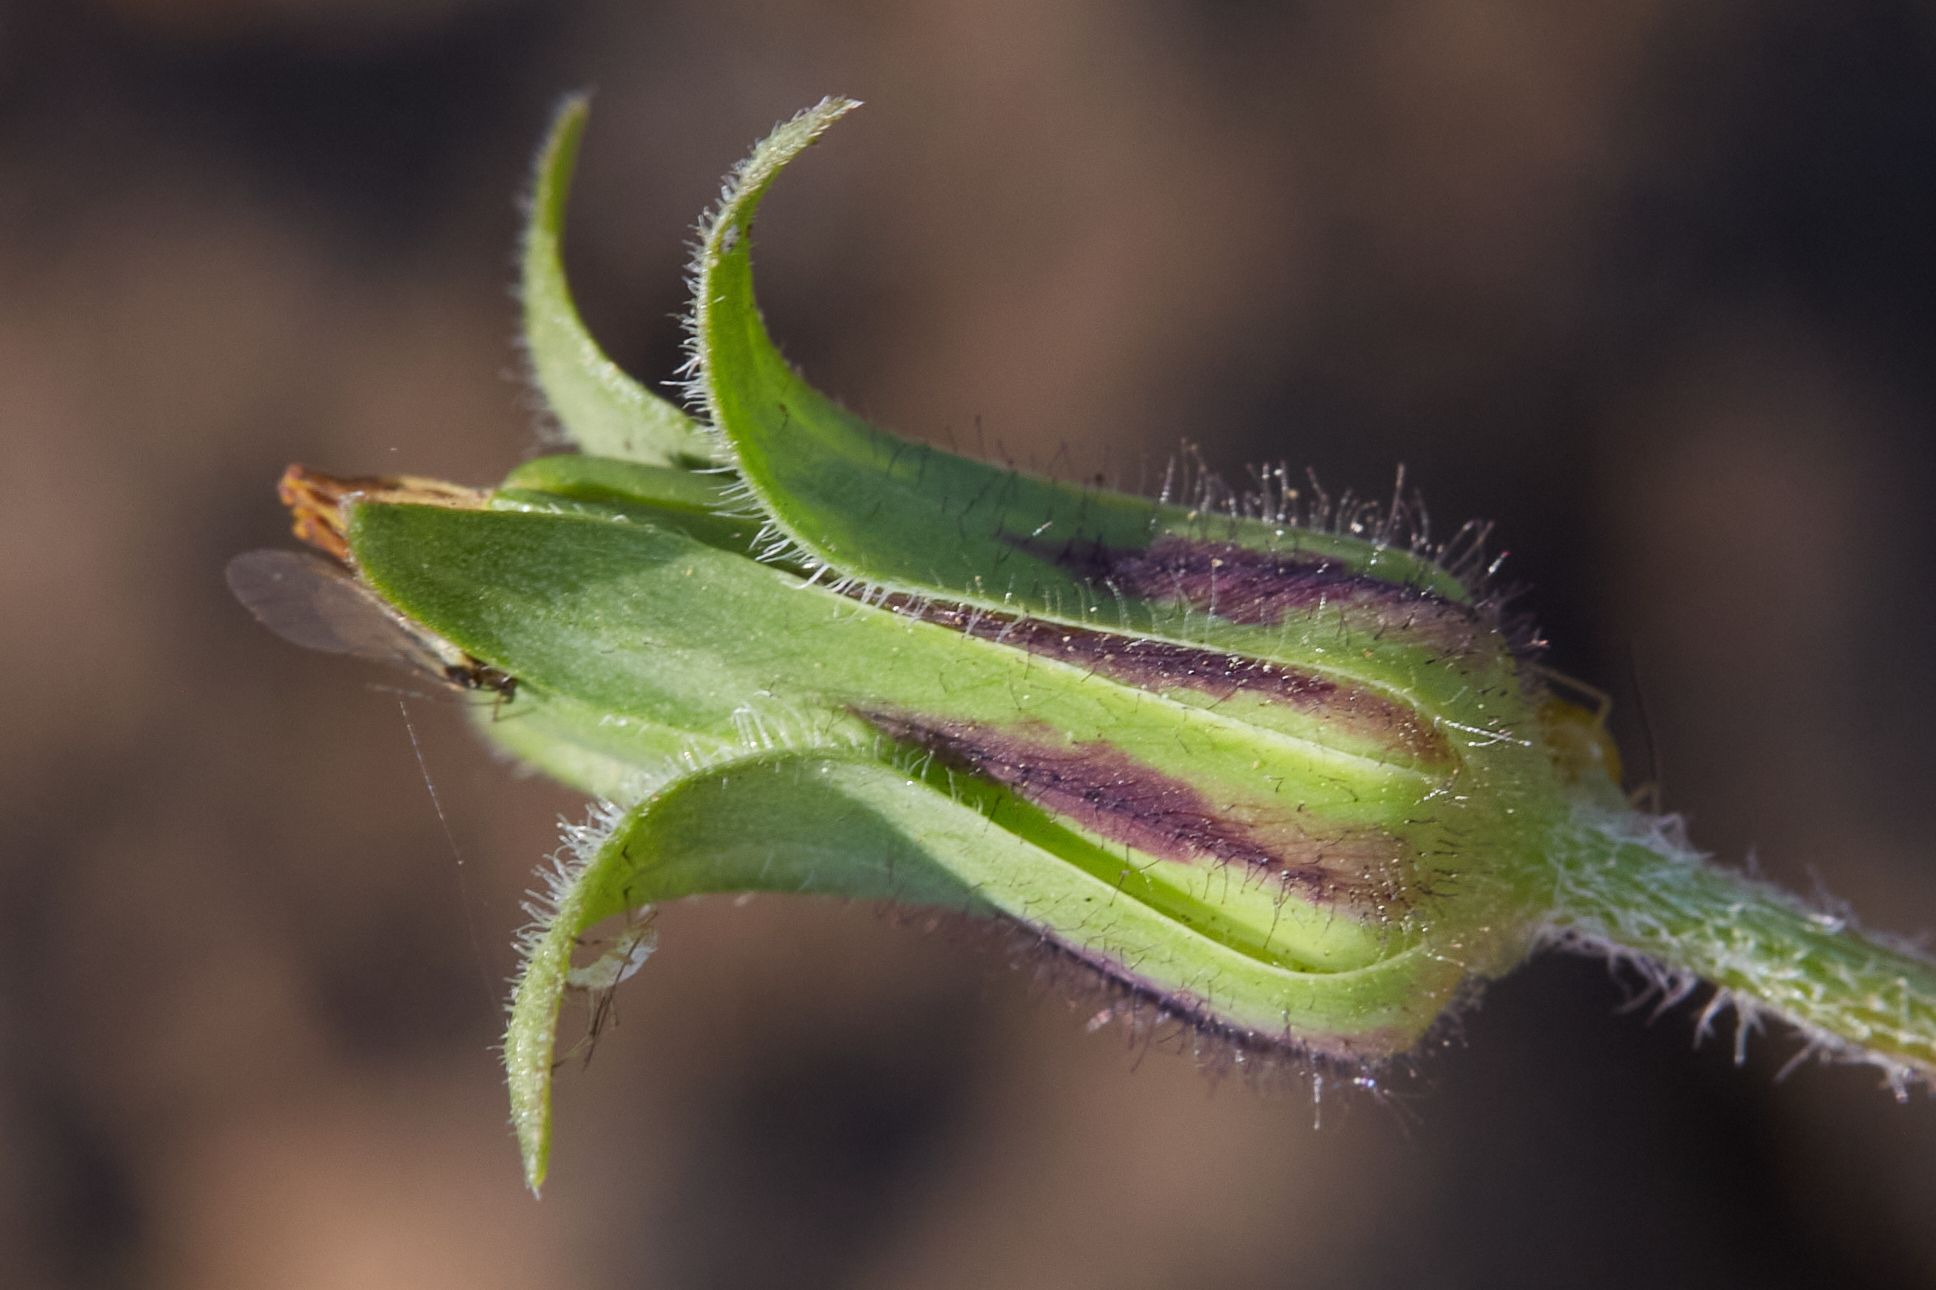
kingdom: Plantae
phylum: Tracheophyta
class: Magnoliopsida
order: Asterales
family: Asteraceae
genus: Agoseris
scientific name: Agoseris heterophylla
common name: Annual agoseris
